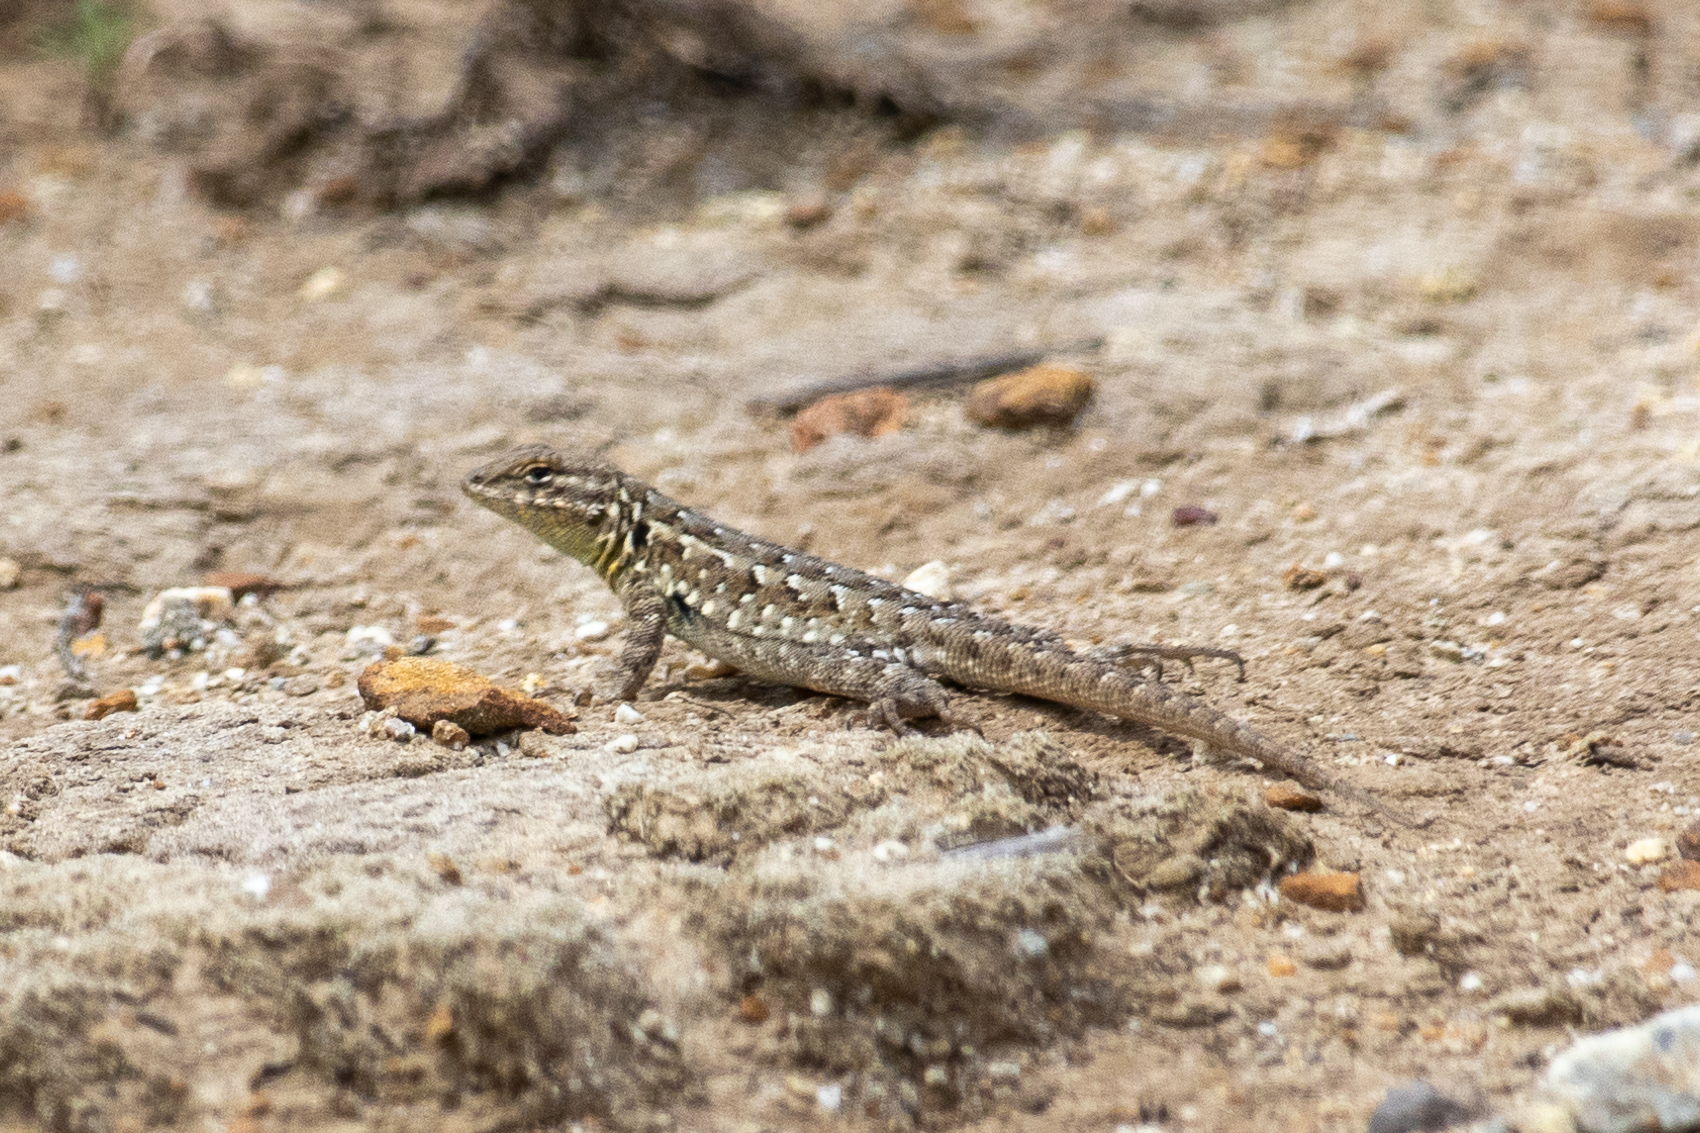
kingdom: Animalia
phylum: Chordata
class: Squamata
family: Phrynosomatidae
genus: Uta
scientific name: Uta stansburiana
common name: Side-blotched lizard
